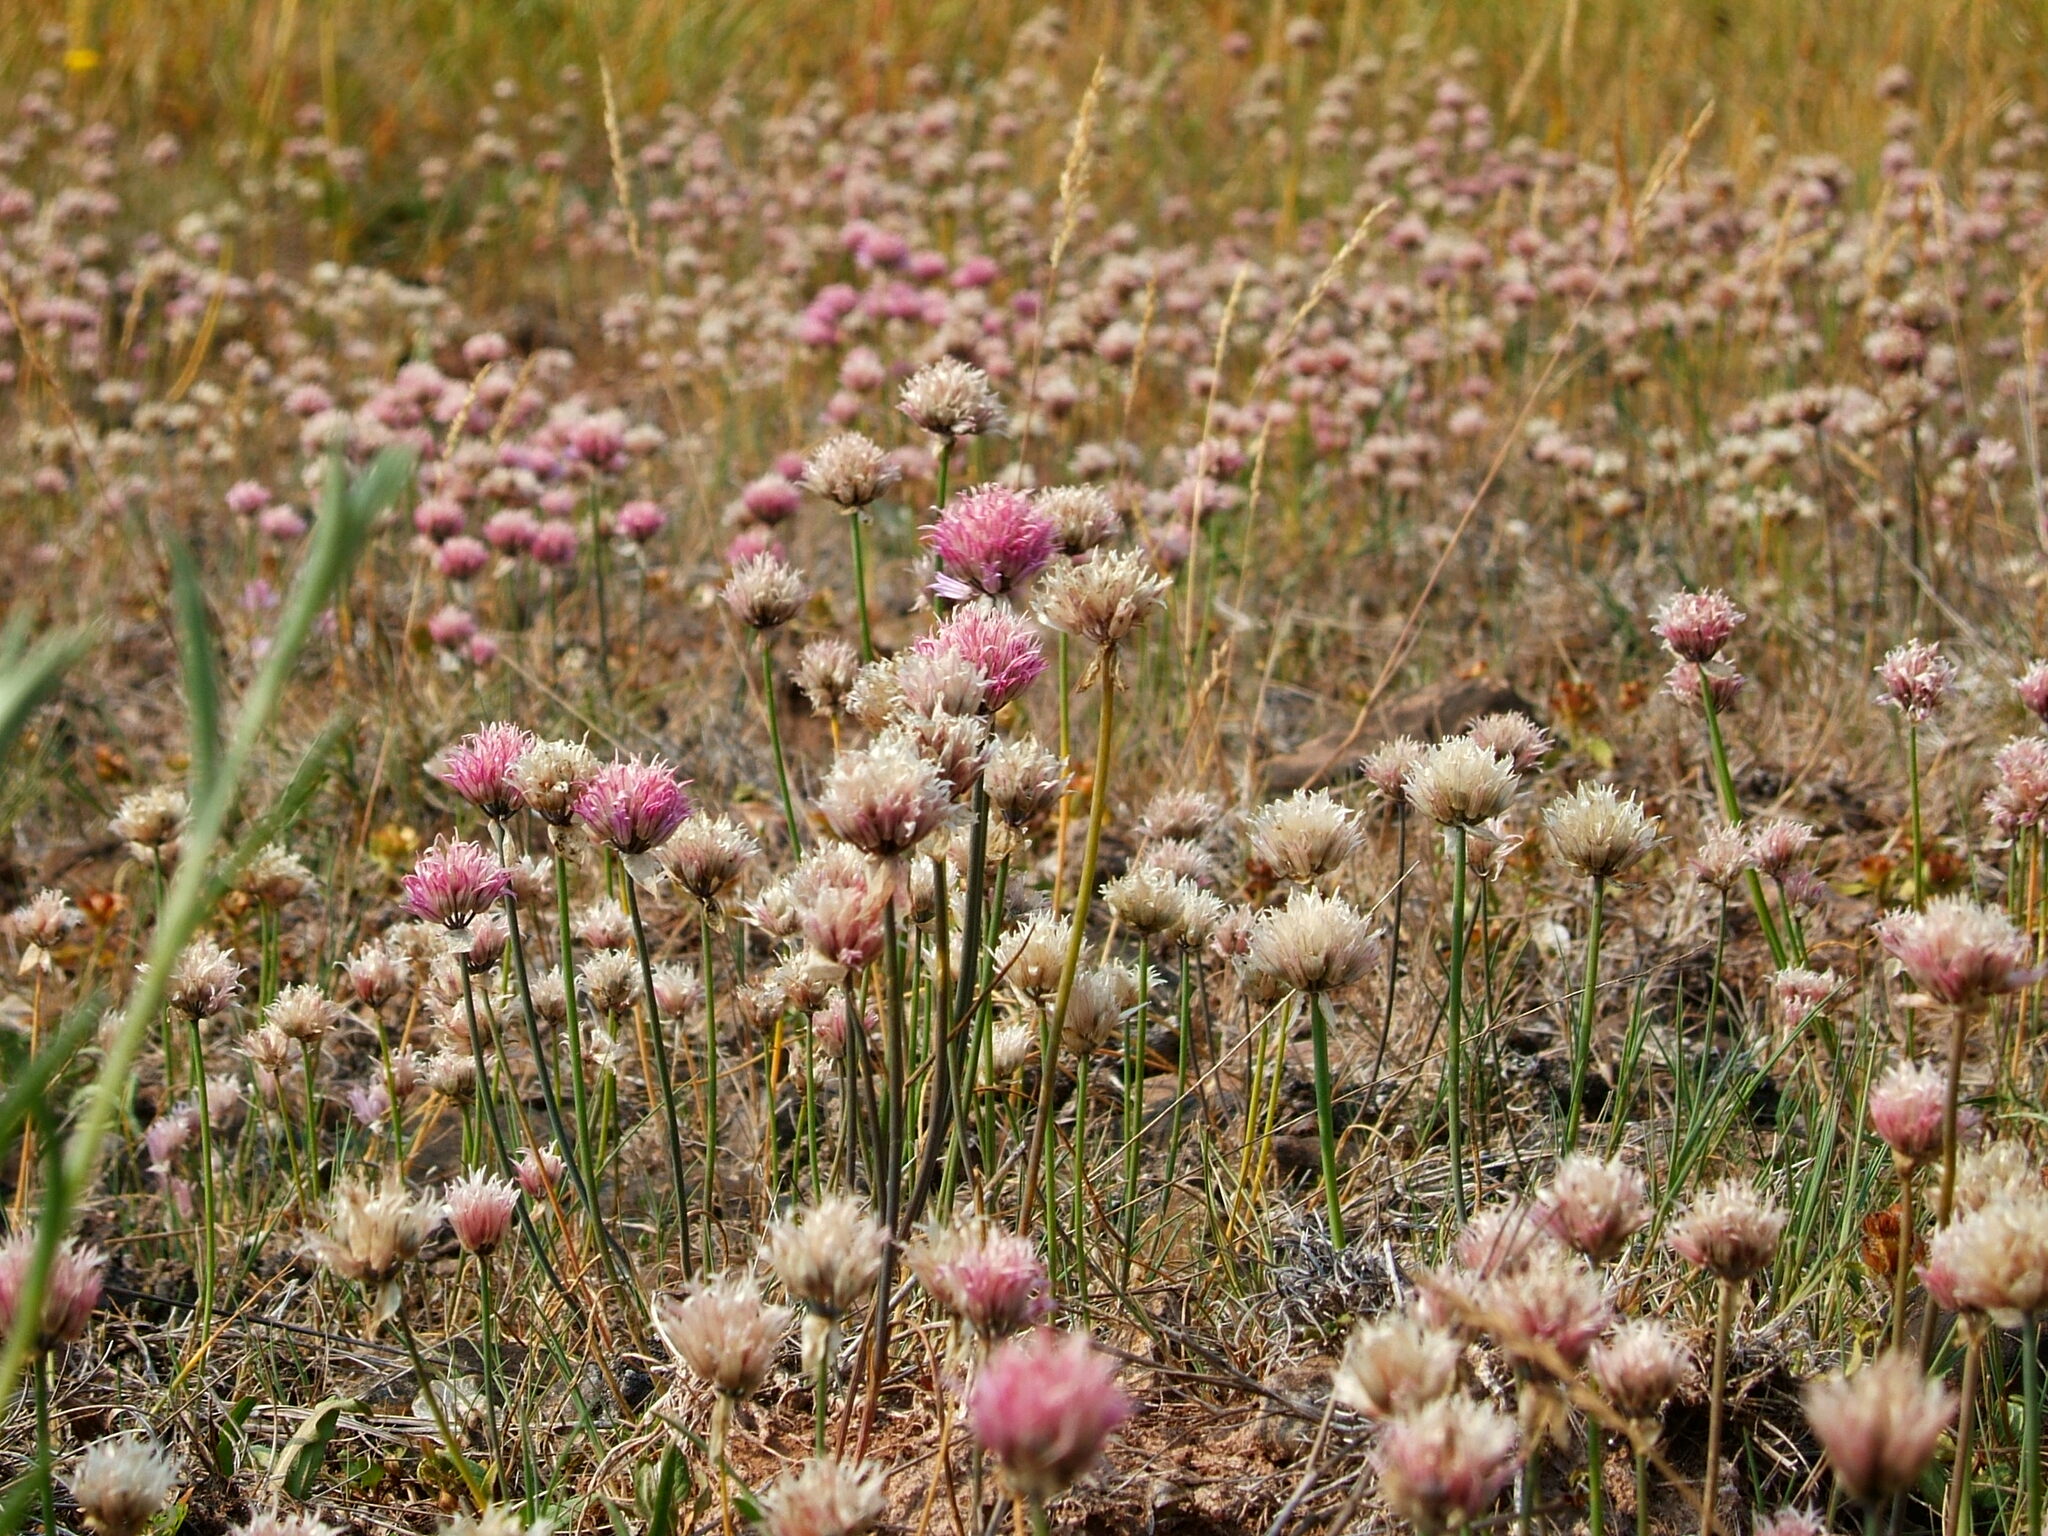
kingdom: Plantae
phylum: Tracheophyta
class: Liliopsida
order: Asparagales
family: Amaryllidaceae
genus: Allium
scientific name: Allium schoenoprasum
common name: Chives
